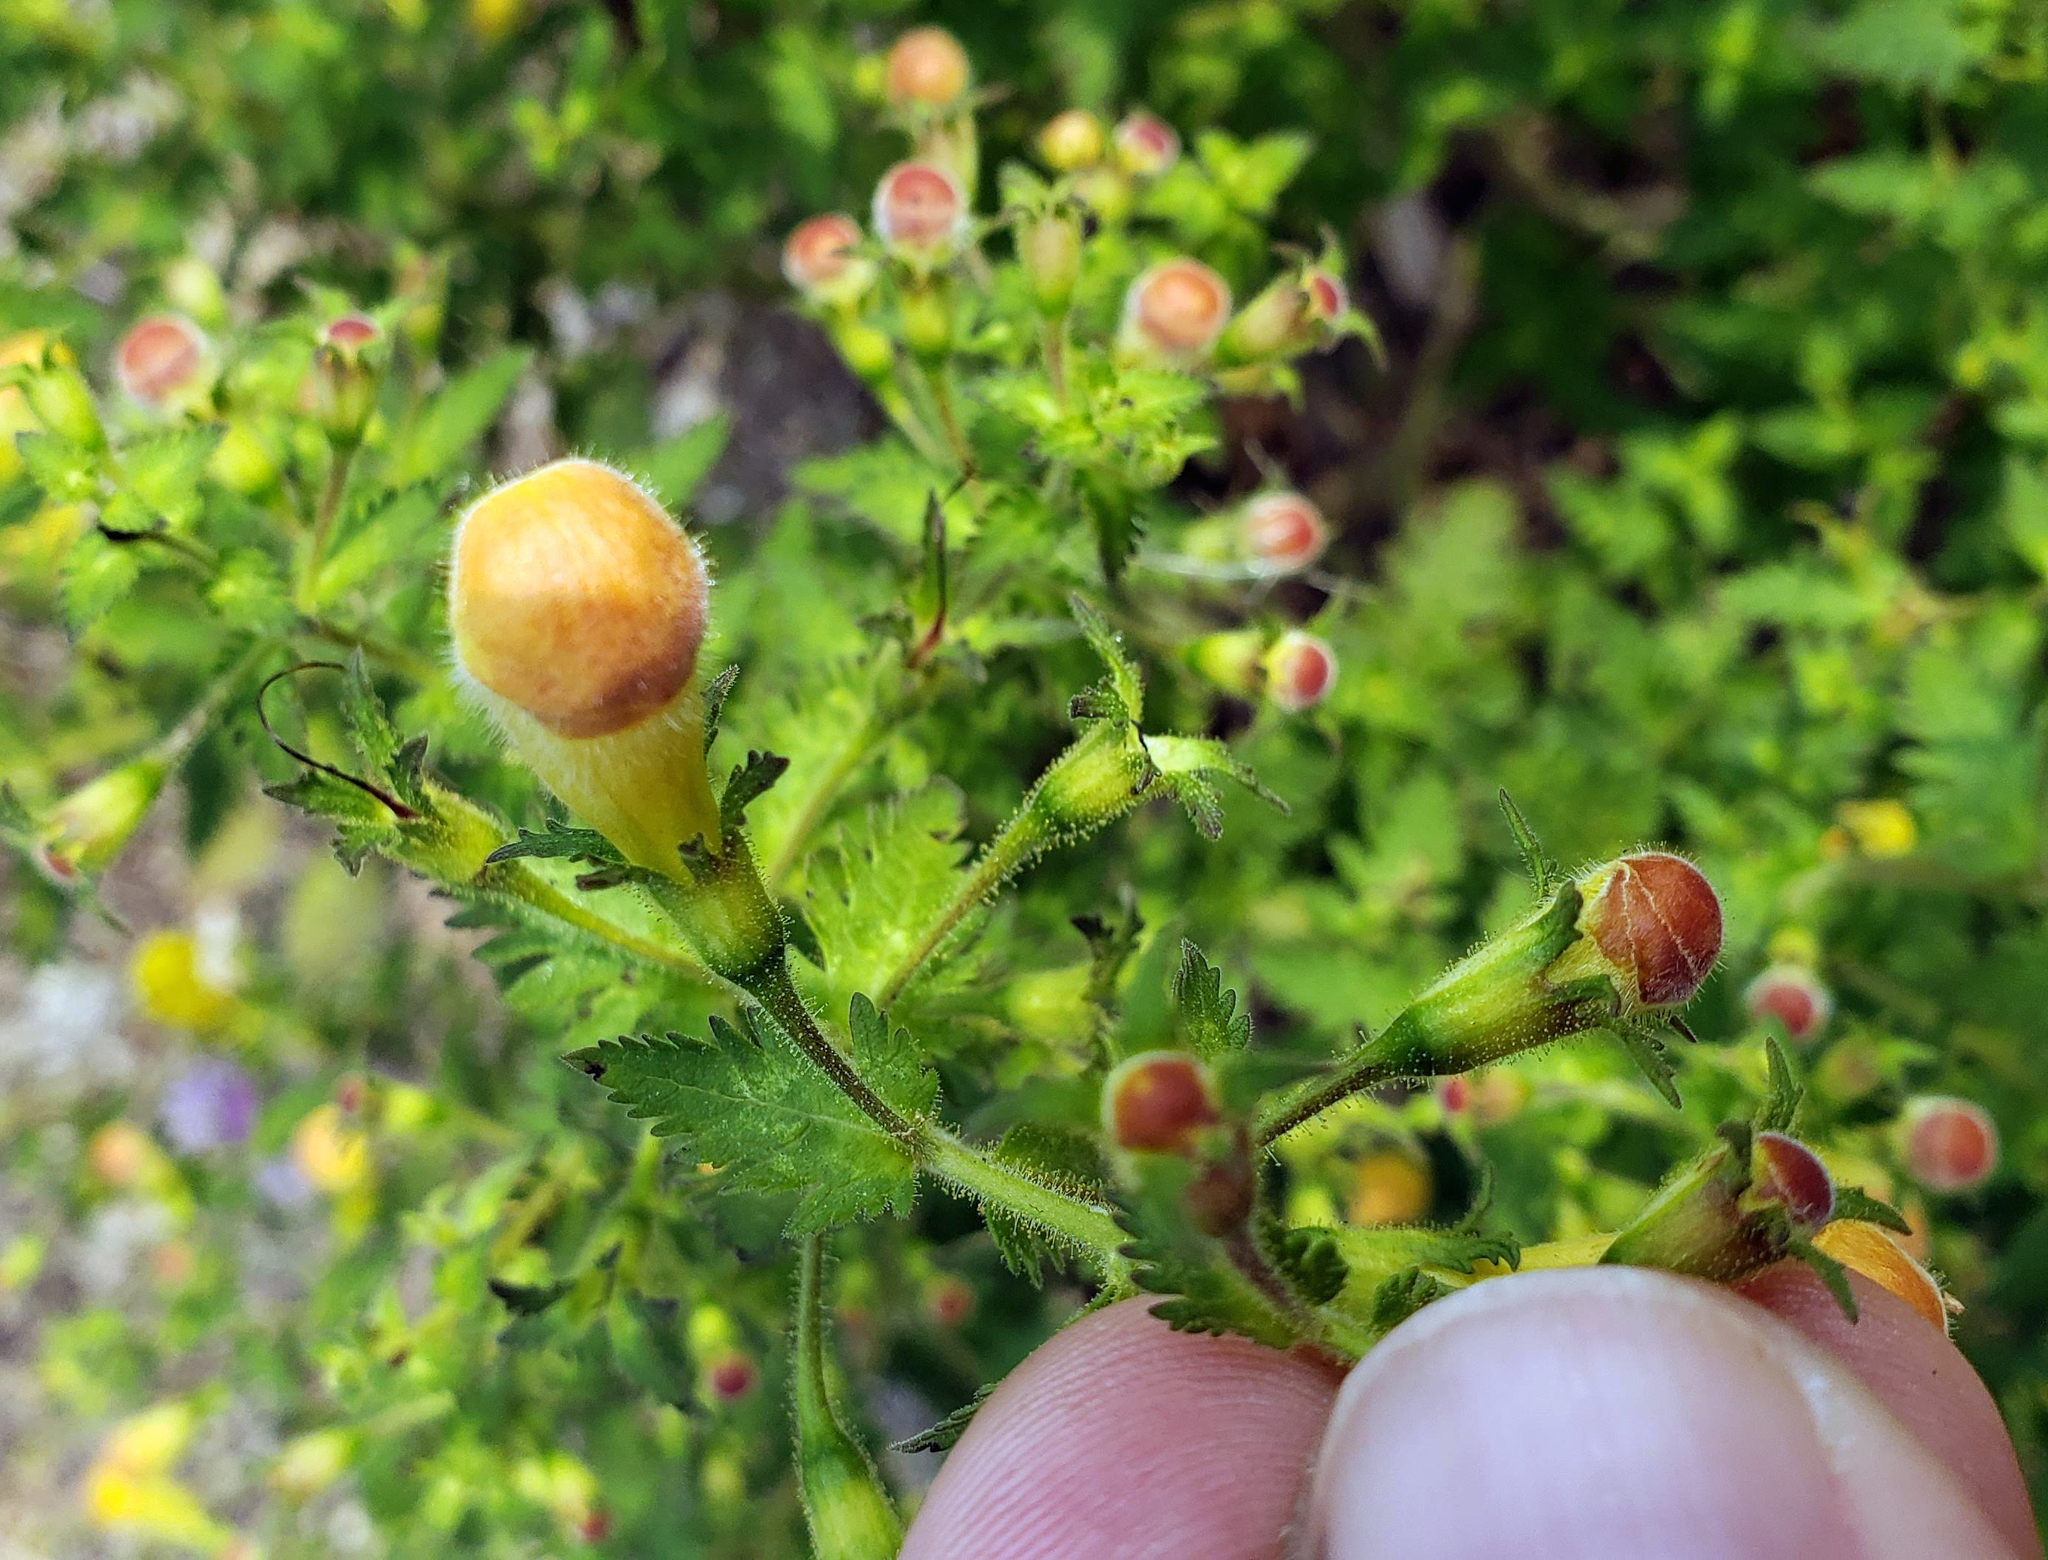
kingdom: Plantae
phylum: Tracheophyta
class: Magnoliopsida
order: Lamiales
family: Orobanchaceae
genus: Aureolaria
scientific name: Aureolaria pedicularia
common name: Annual false foxglove
